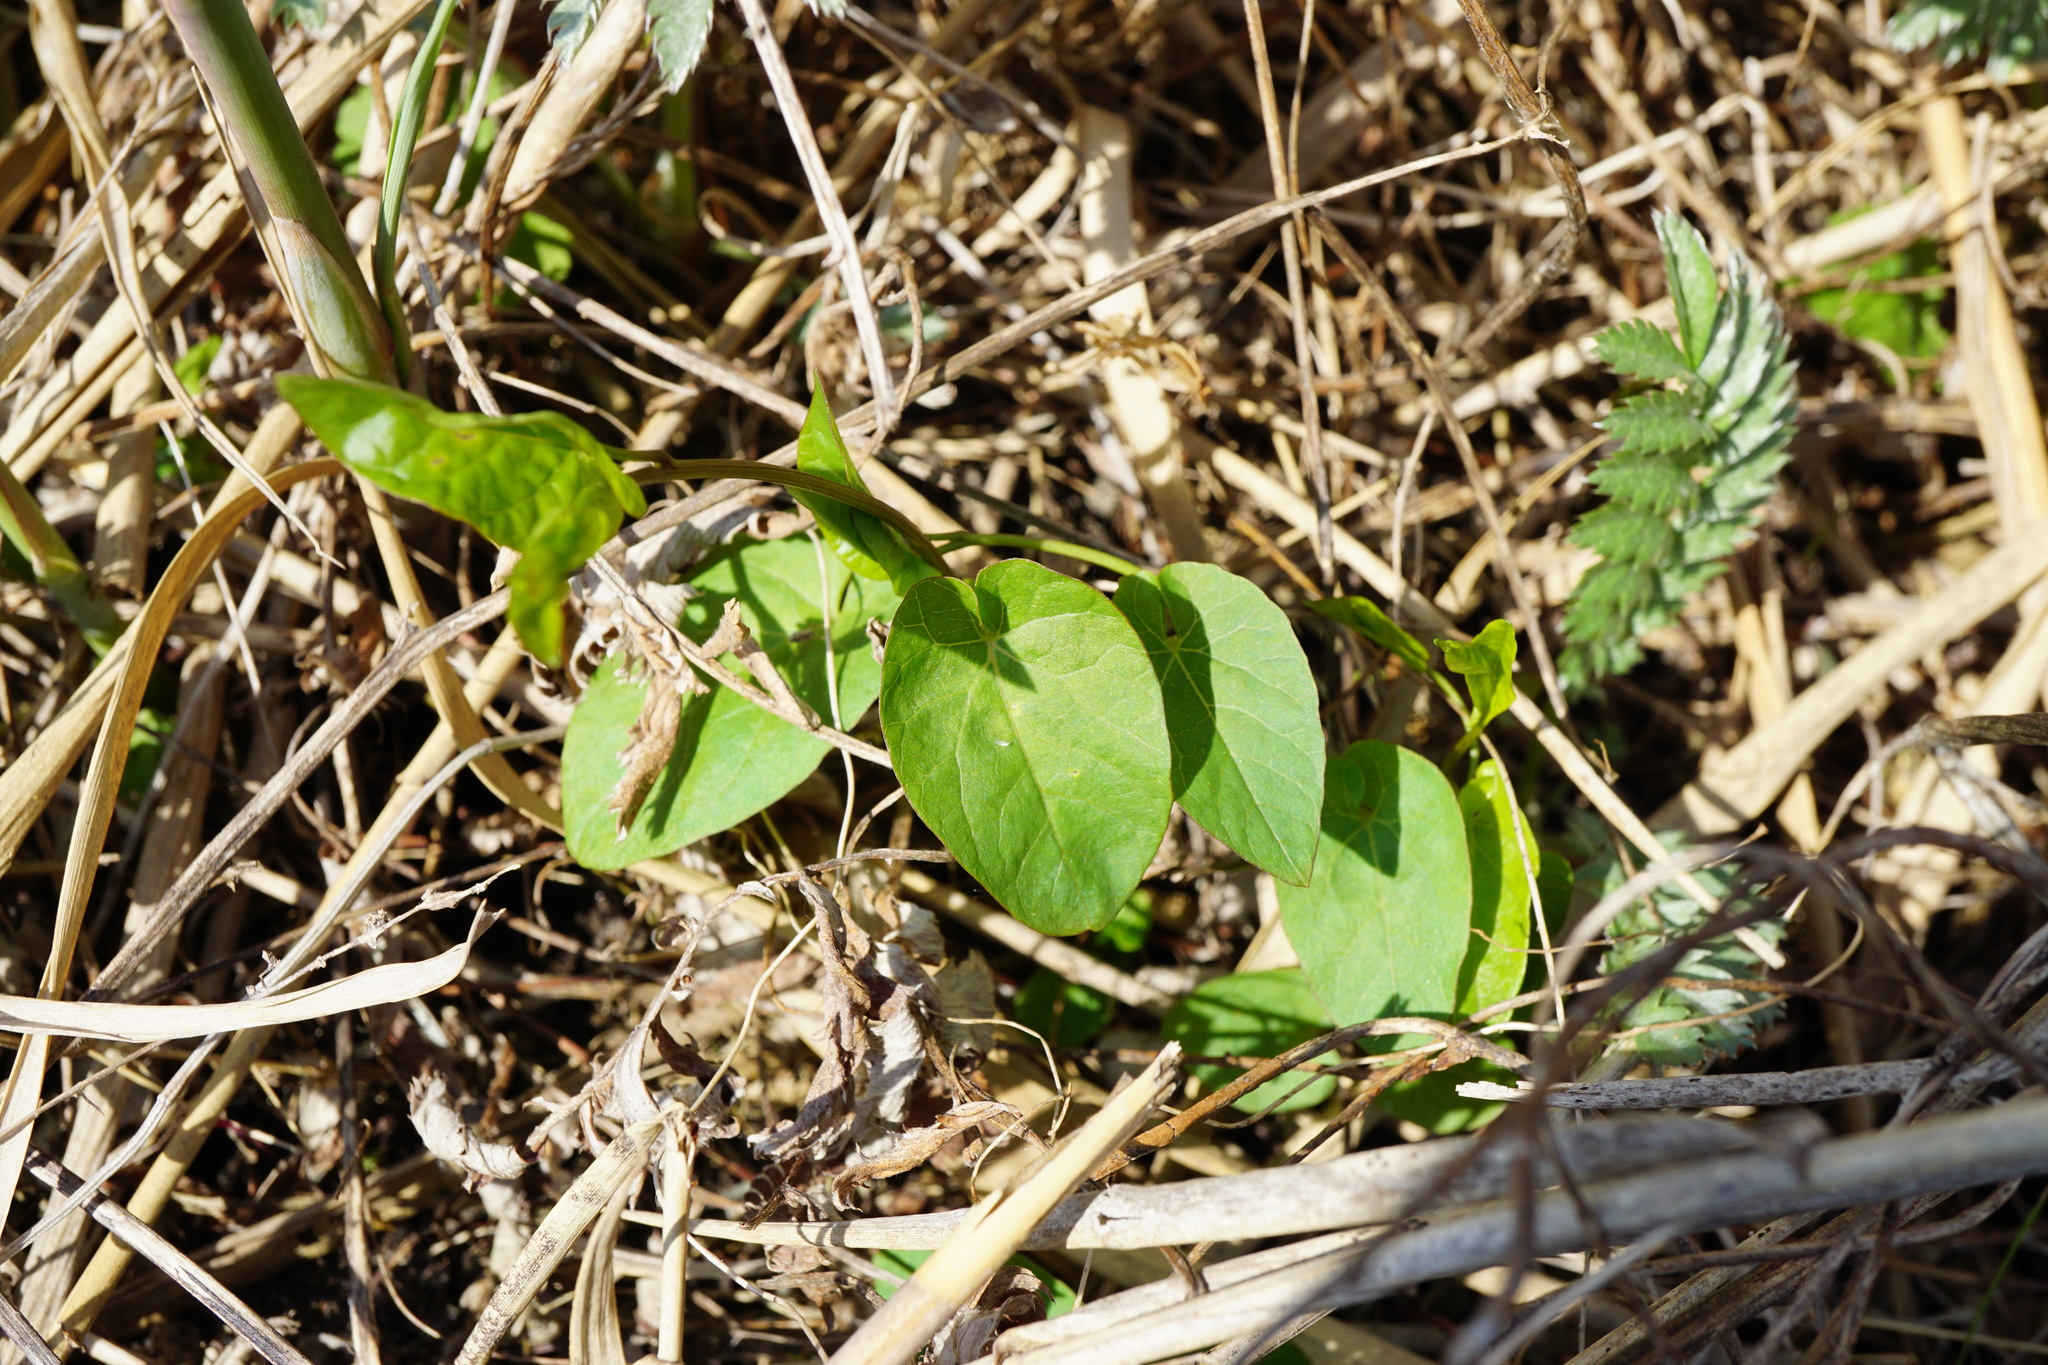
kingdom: Plantae
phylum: Tracheophyta
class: Magnoliopsida
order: Solanales
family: Convolvulaceae
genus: Calystegia
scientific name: Calystegia sepium
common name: Hedge bindweed
